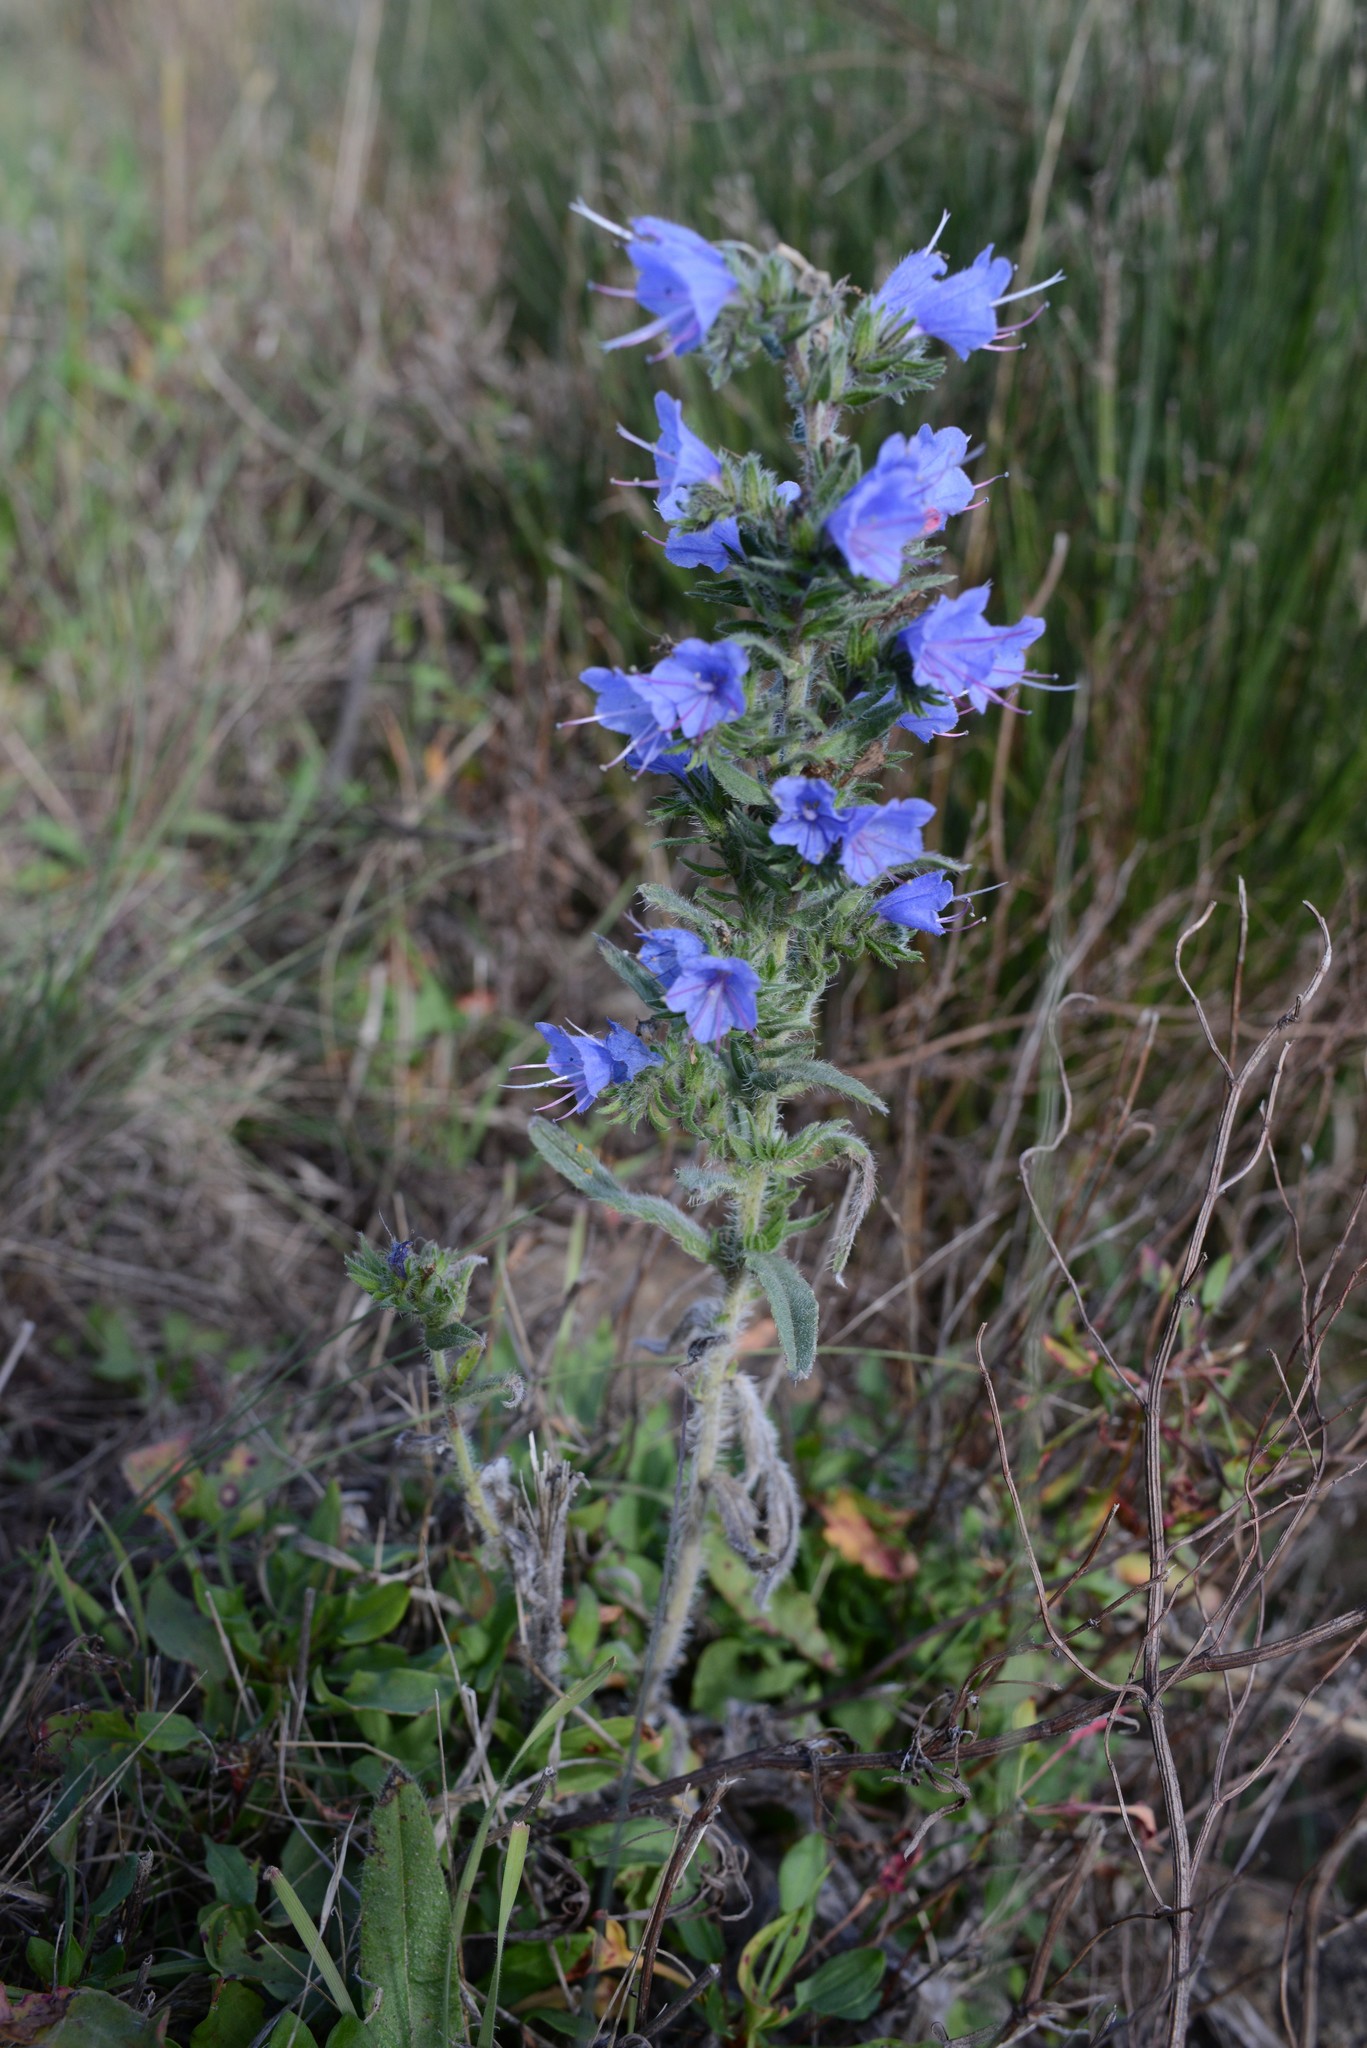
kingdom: Plantae
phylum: Tracheophyta
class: Magnoliopsida
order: Boraginales
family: Boraginaceae
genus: Echium
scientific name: Echium vulgare
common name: Common viper's bugloss
